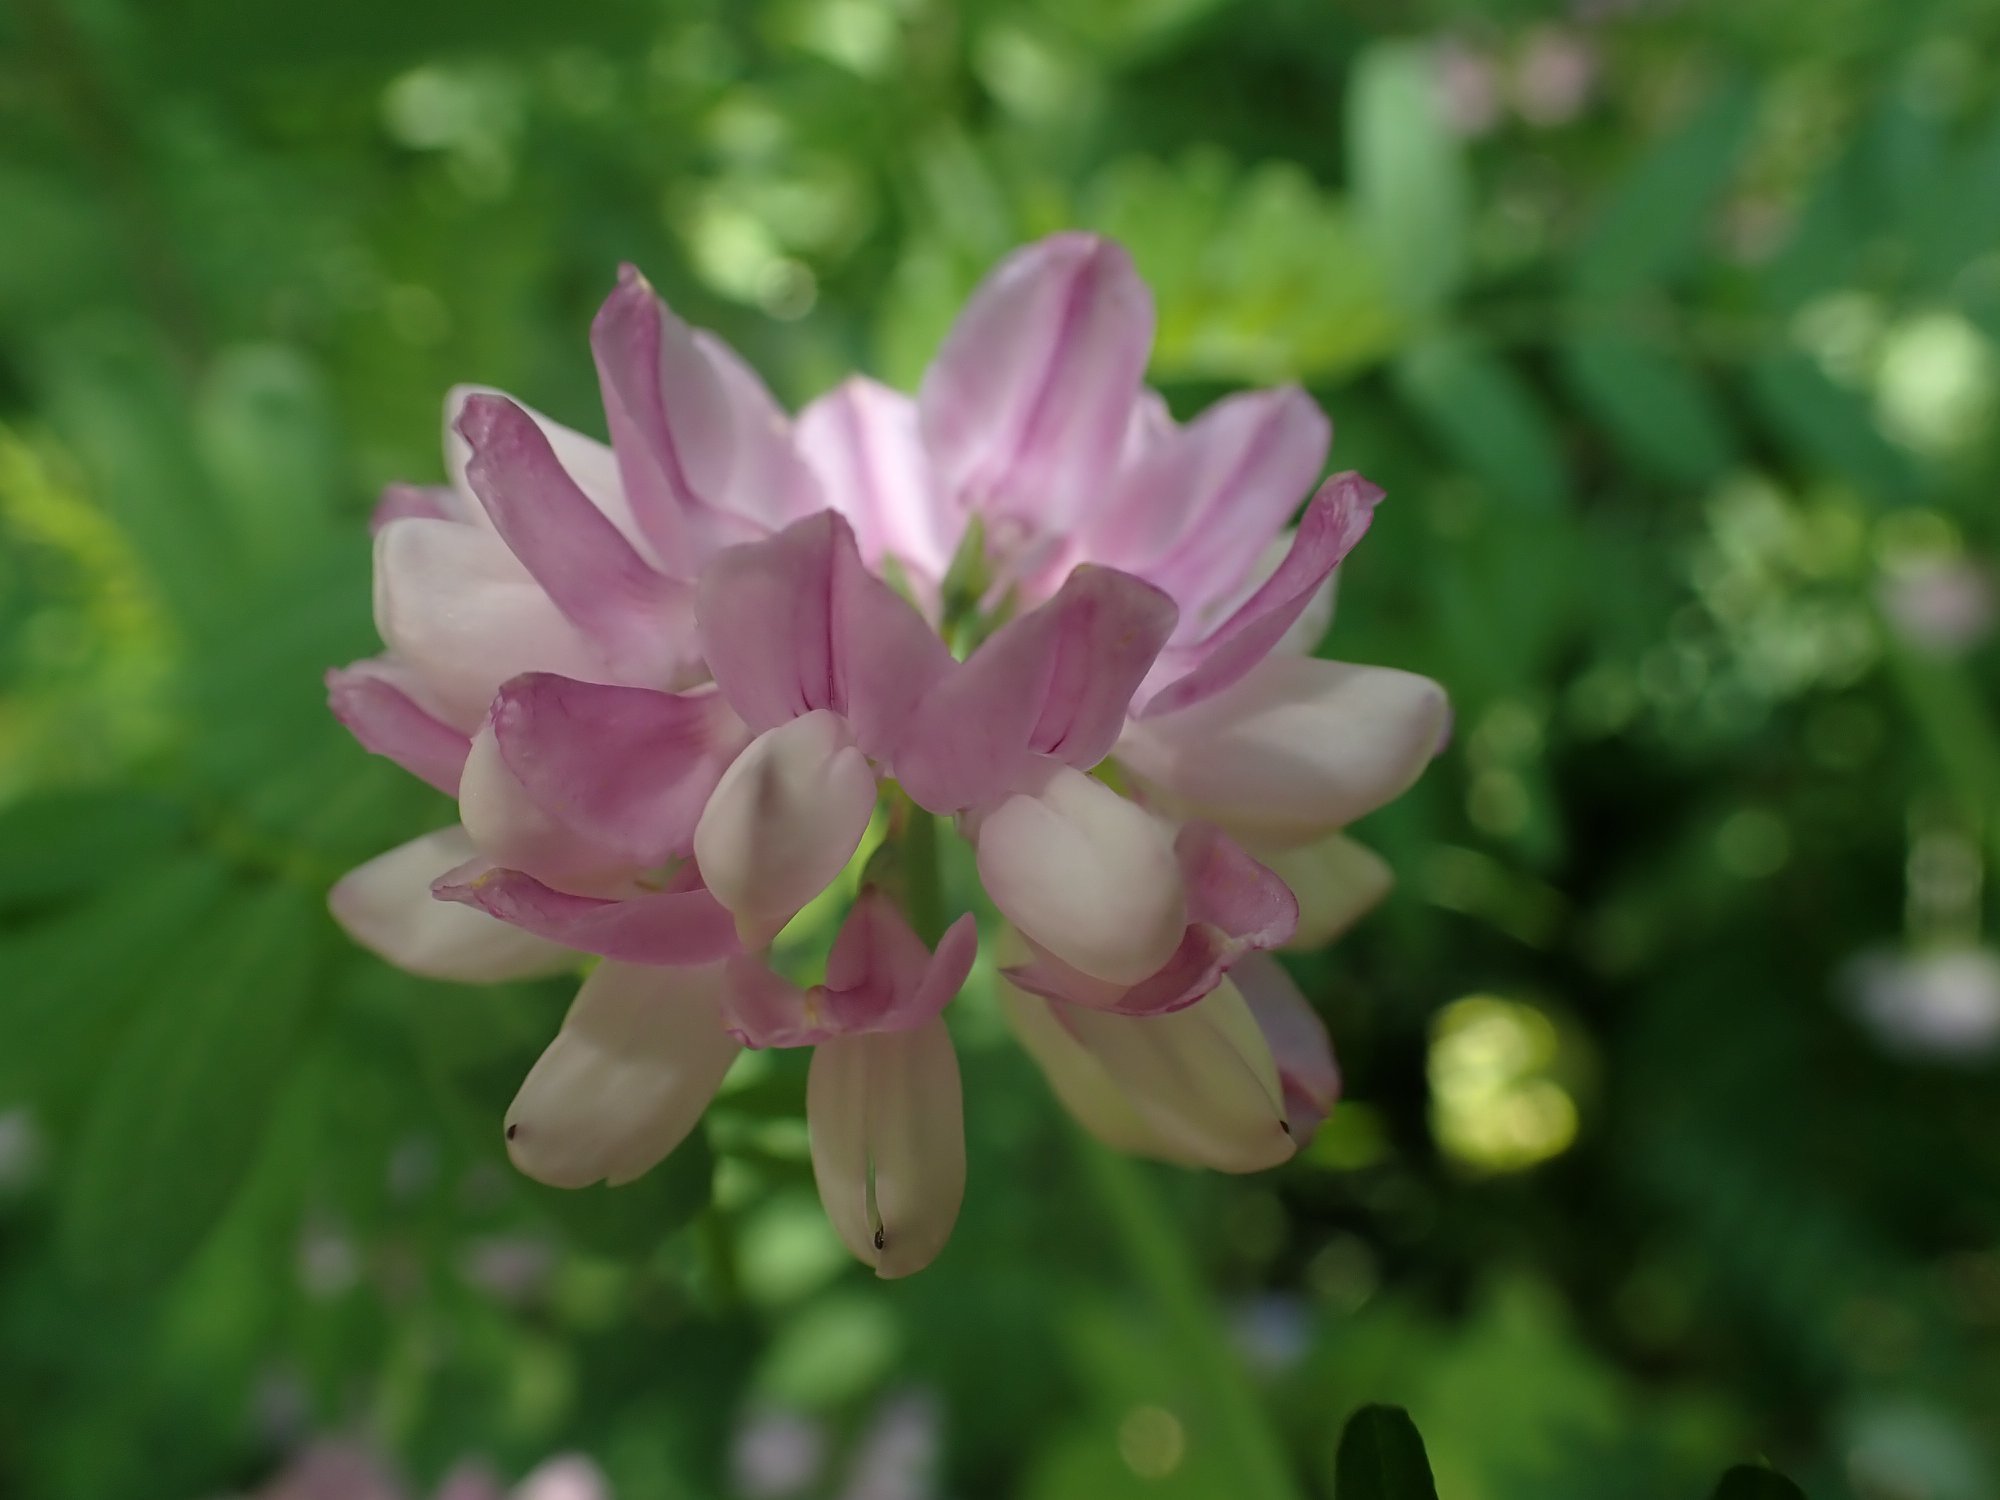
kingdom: Plantae
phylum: Tracheophyta
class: Magnoliopsida
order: Fabales
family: Fabaceae
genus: Coronilla
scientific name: Coronilla varia
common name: Crownvetch
